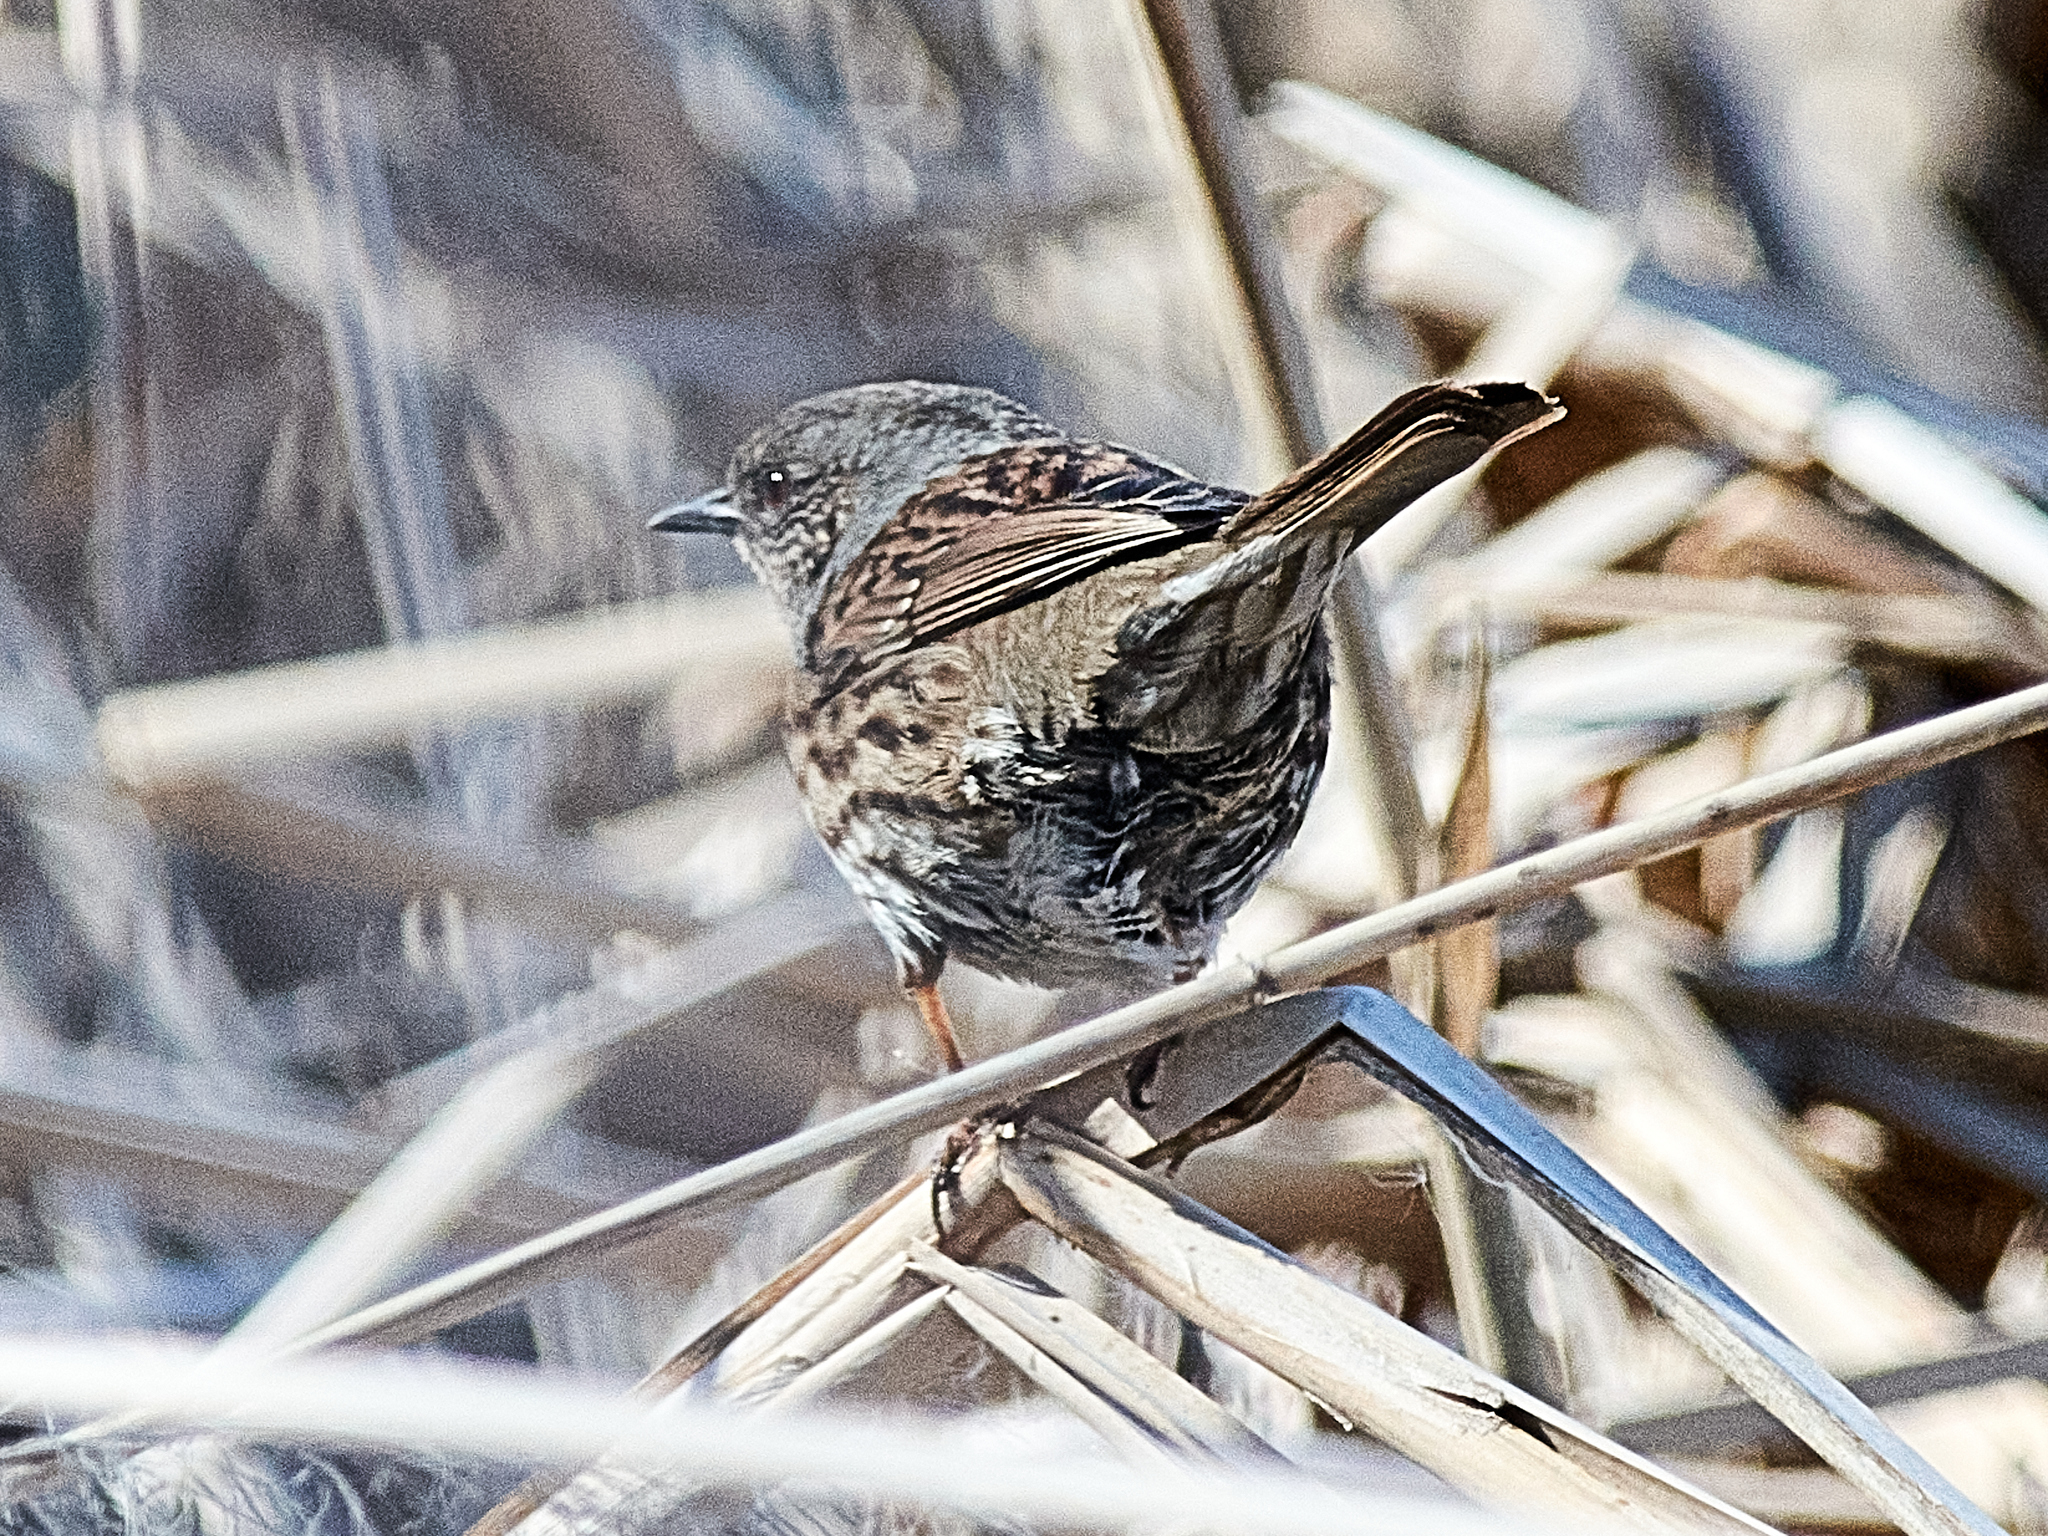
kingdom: Animalia
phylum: Chordata
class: Aves
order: Passeriformes
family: Prunellidae
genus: Prunella
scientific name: Prunella modularis
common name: Dunnock
